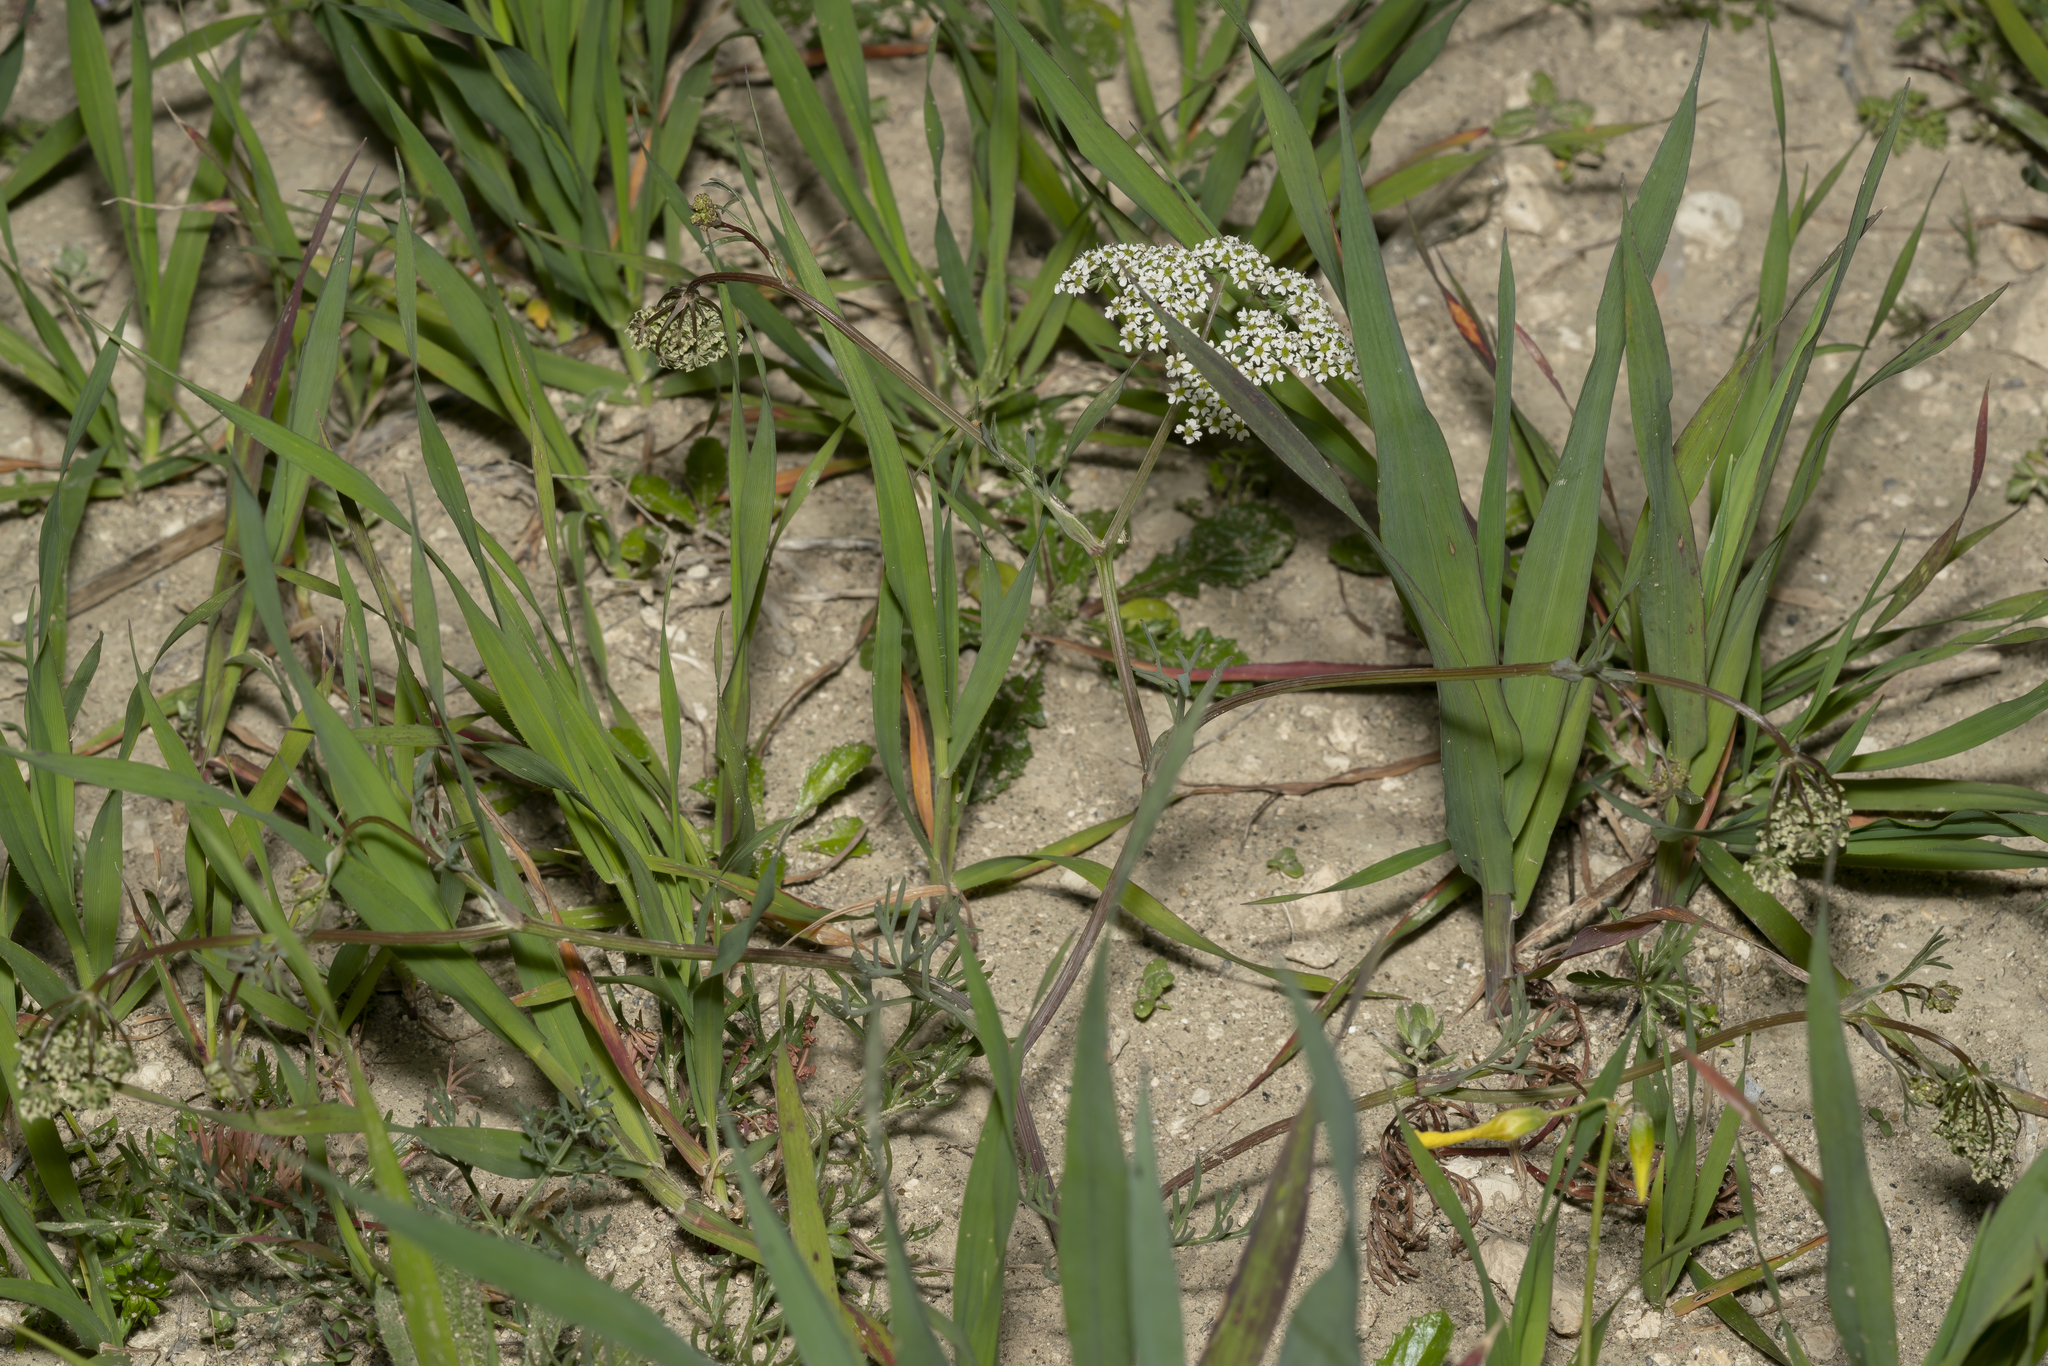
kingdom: Plantae
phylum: Tracheophyta
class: Magnoliopsida
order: Apiales
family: Apiaceae
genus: Bunium
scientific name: Bunium ferulaceum
